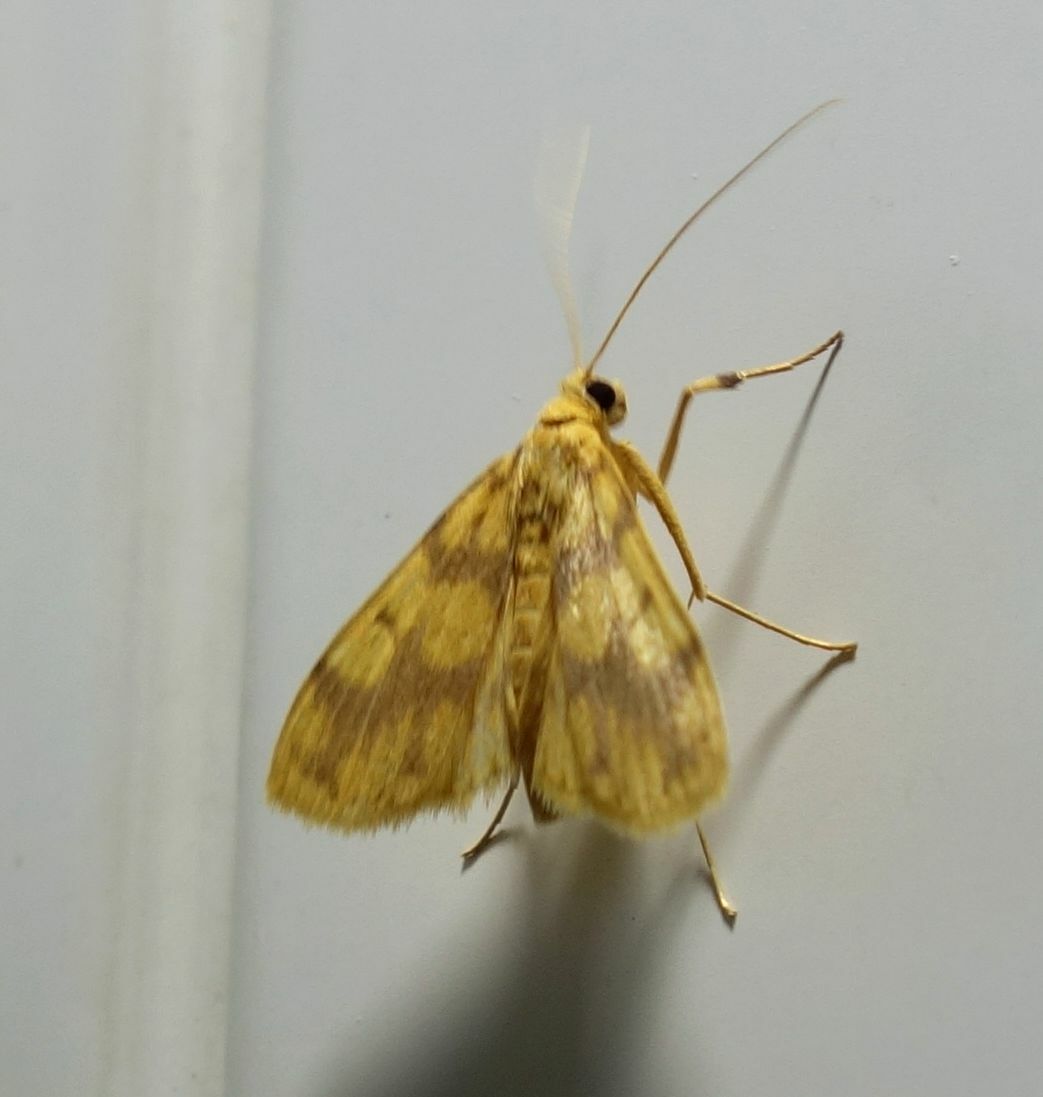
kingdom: Animalia
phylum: Arthropoda
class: Insecta
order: Lepidoptera
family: Crambidae
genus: Eusabena
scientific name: Eusabena paraphragma
